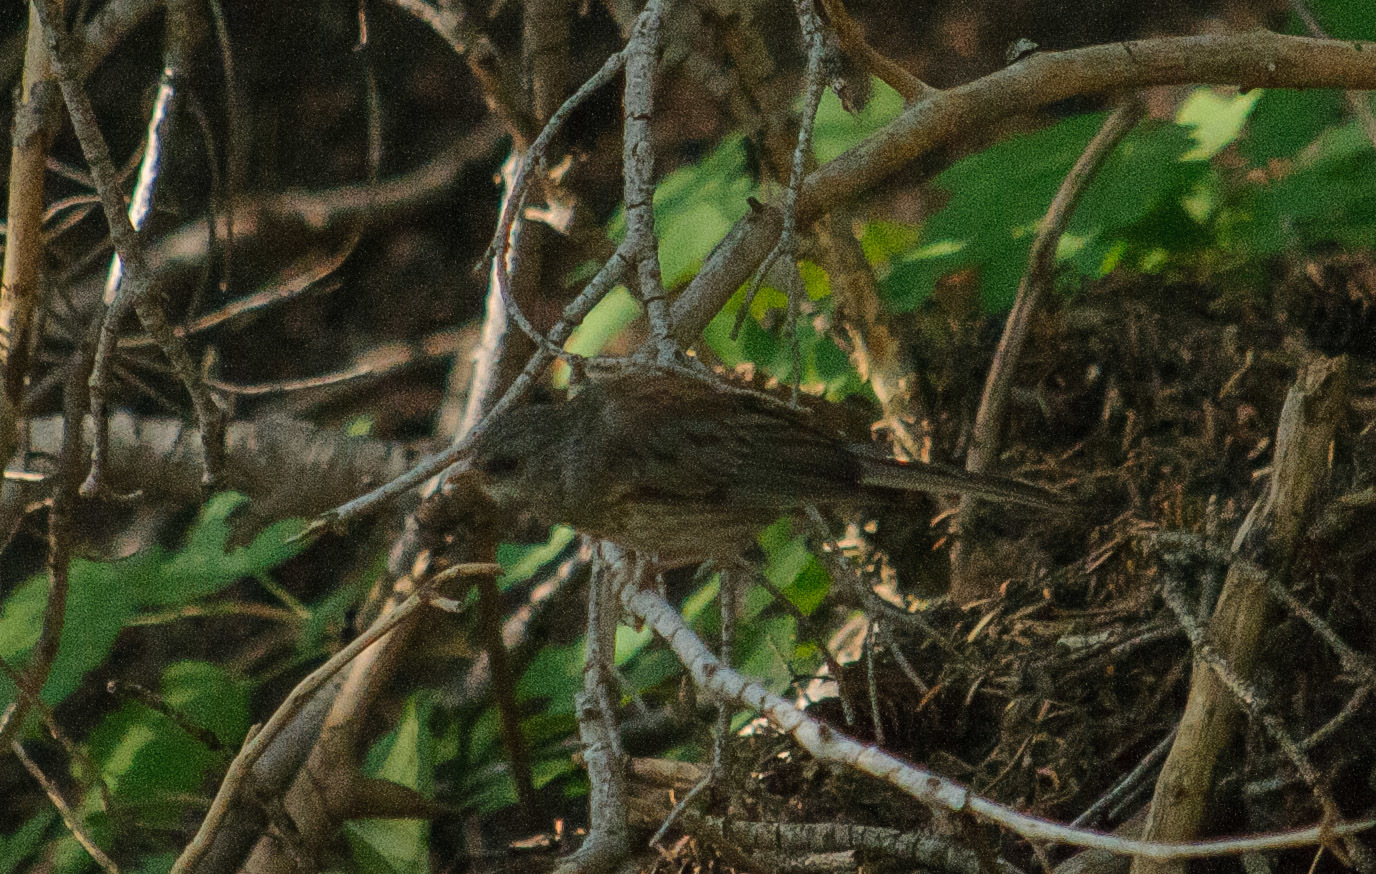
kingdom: Animalia
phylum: Chordata
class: Aves
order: Passeriformes
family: Passerellidae
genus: Junco
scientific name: Junco hyemalis
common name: Dark-eyed junco
